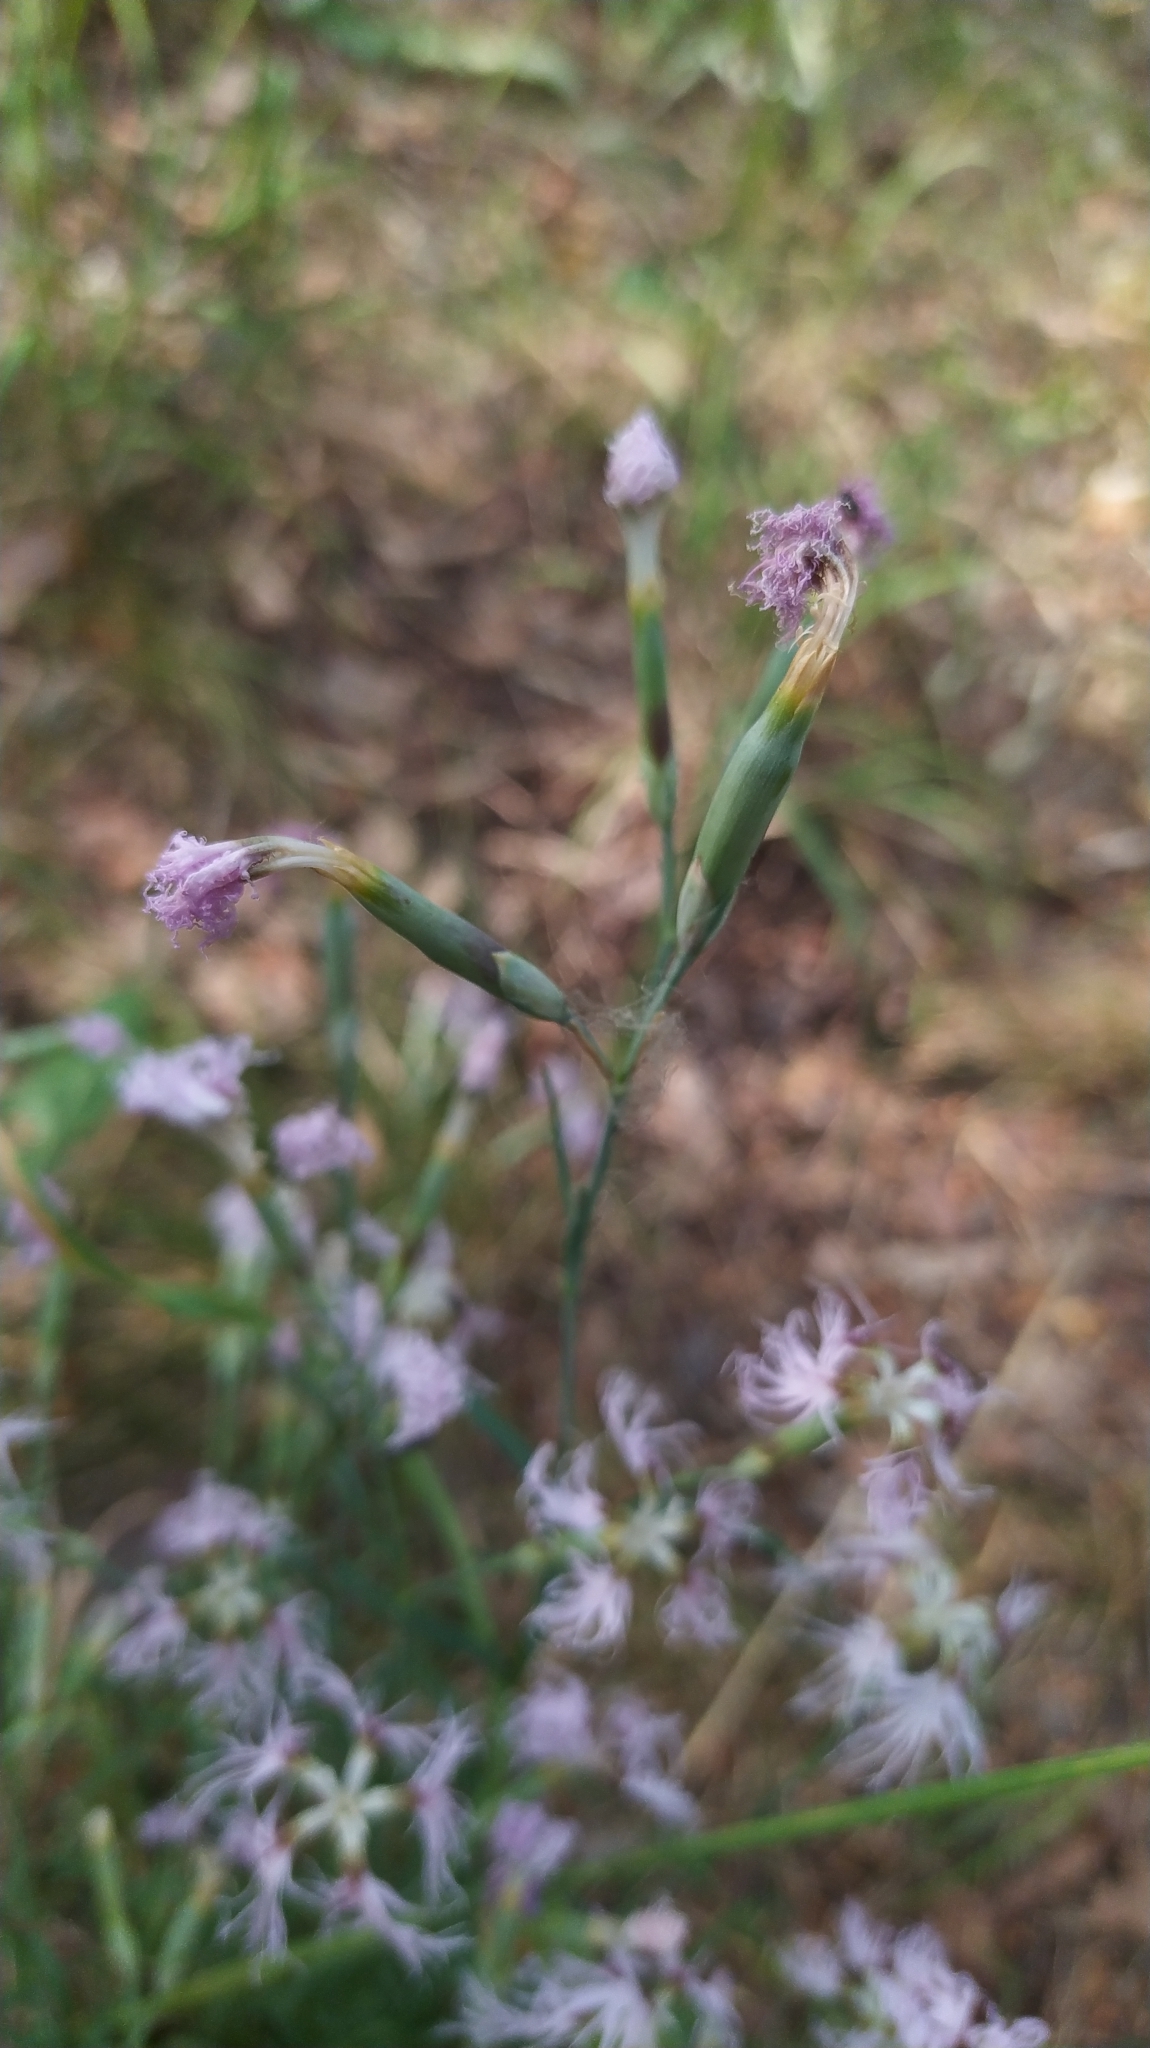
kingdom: Plantae
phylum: Tracheophyta
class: Magnoliopsida
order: Caryophyllales
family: Caryophyllaceae
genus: Dianthus
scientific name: Dianthus superbus
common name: Fringed pink
